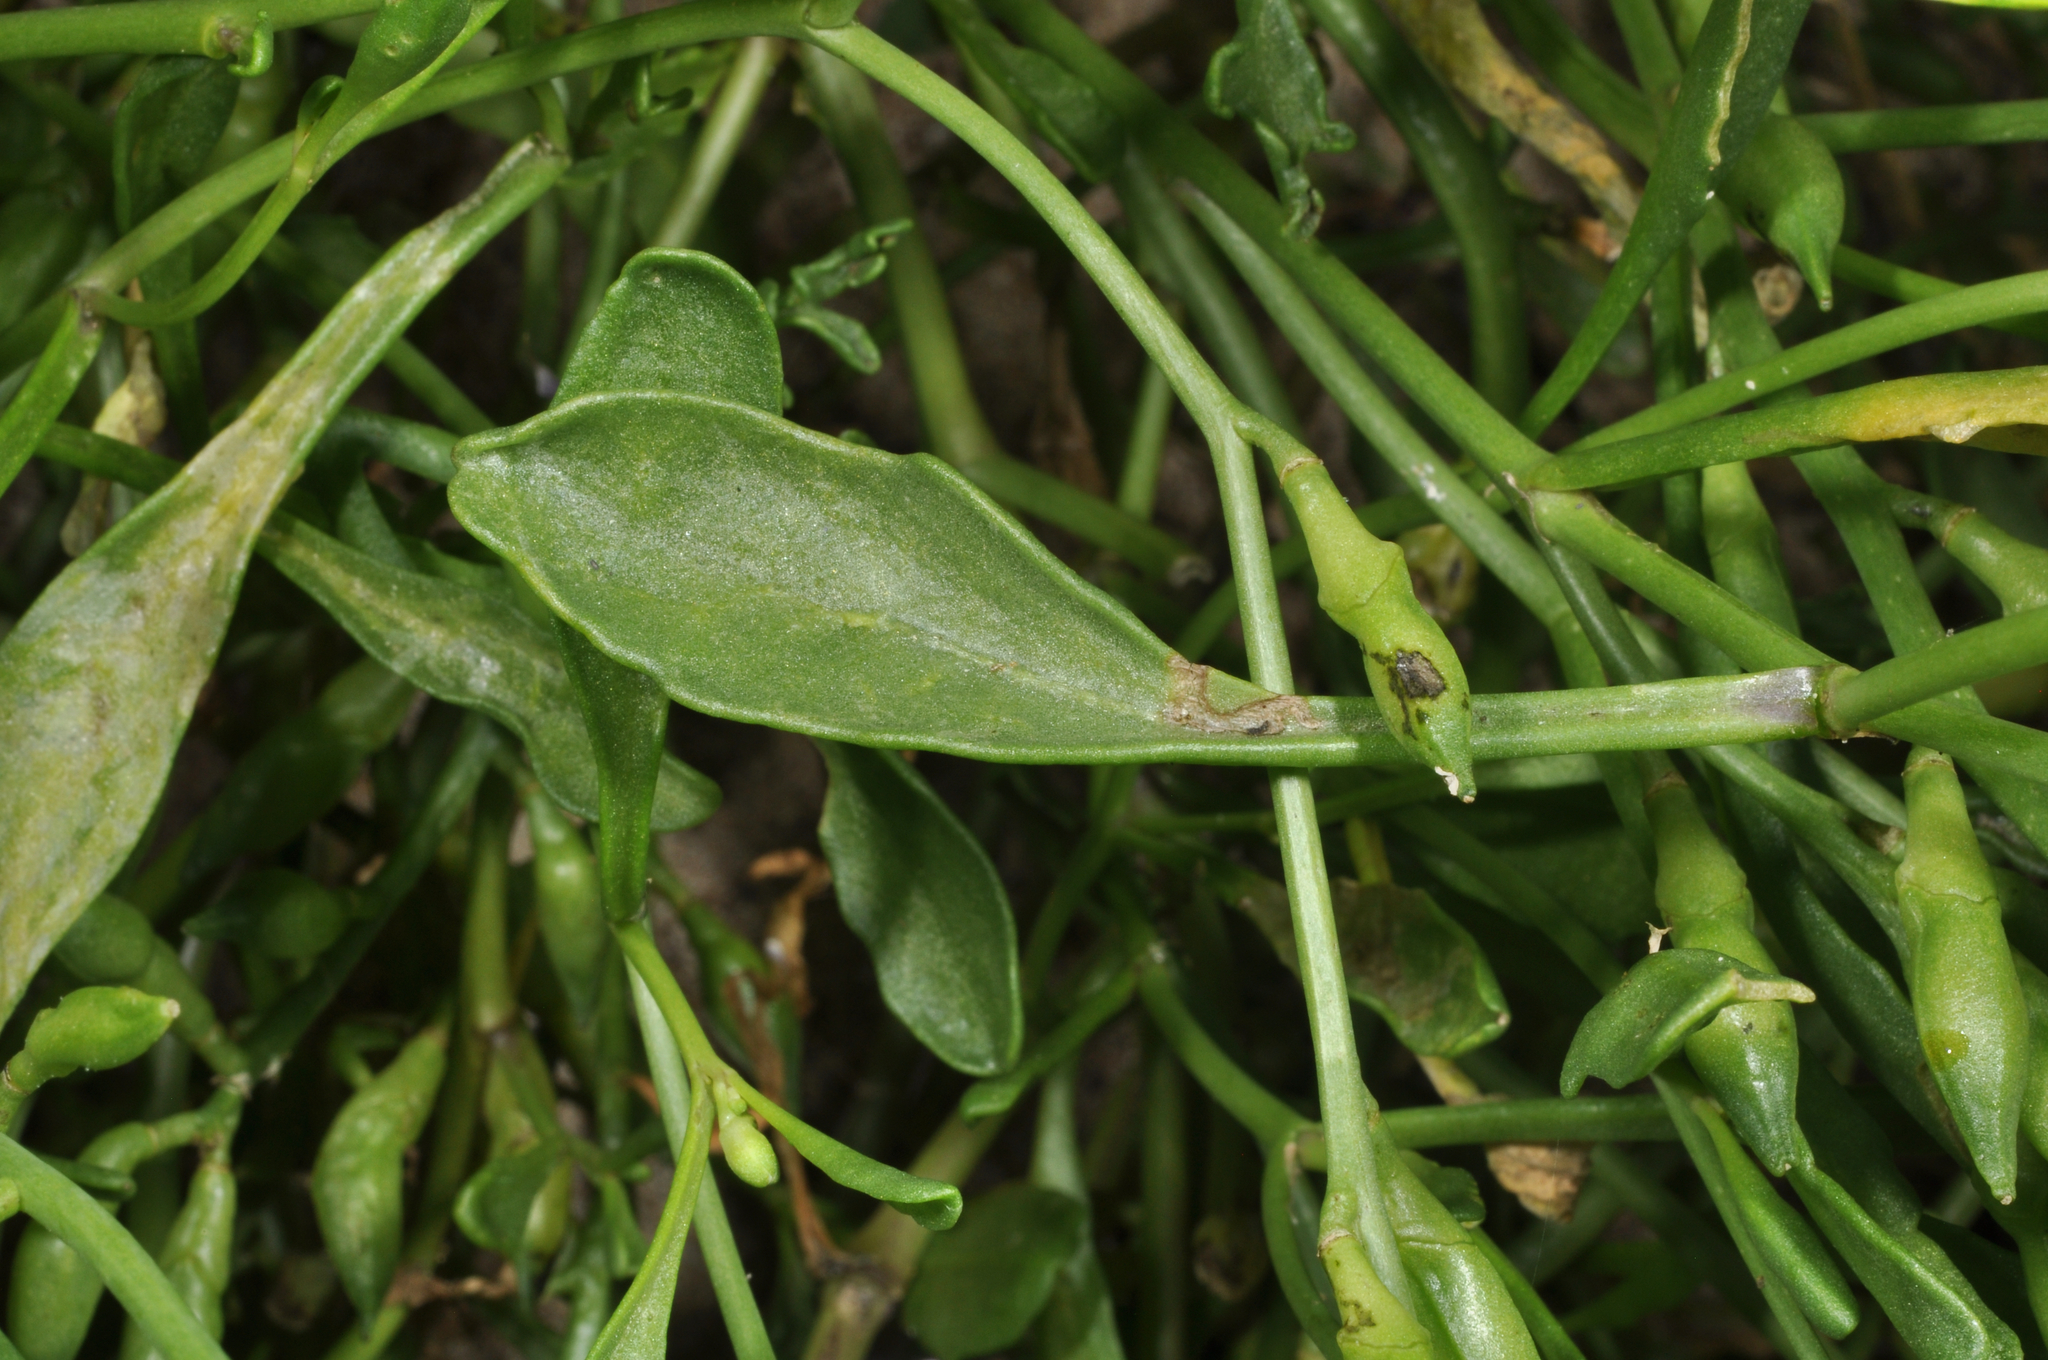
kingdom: Plantae
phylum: Tracheophyta
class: Magnoliopsida
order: Brassicales
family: Brassicaceae
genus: Cakile
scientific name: Cakile edentula
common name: American sea rocket
